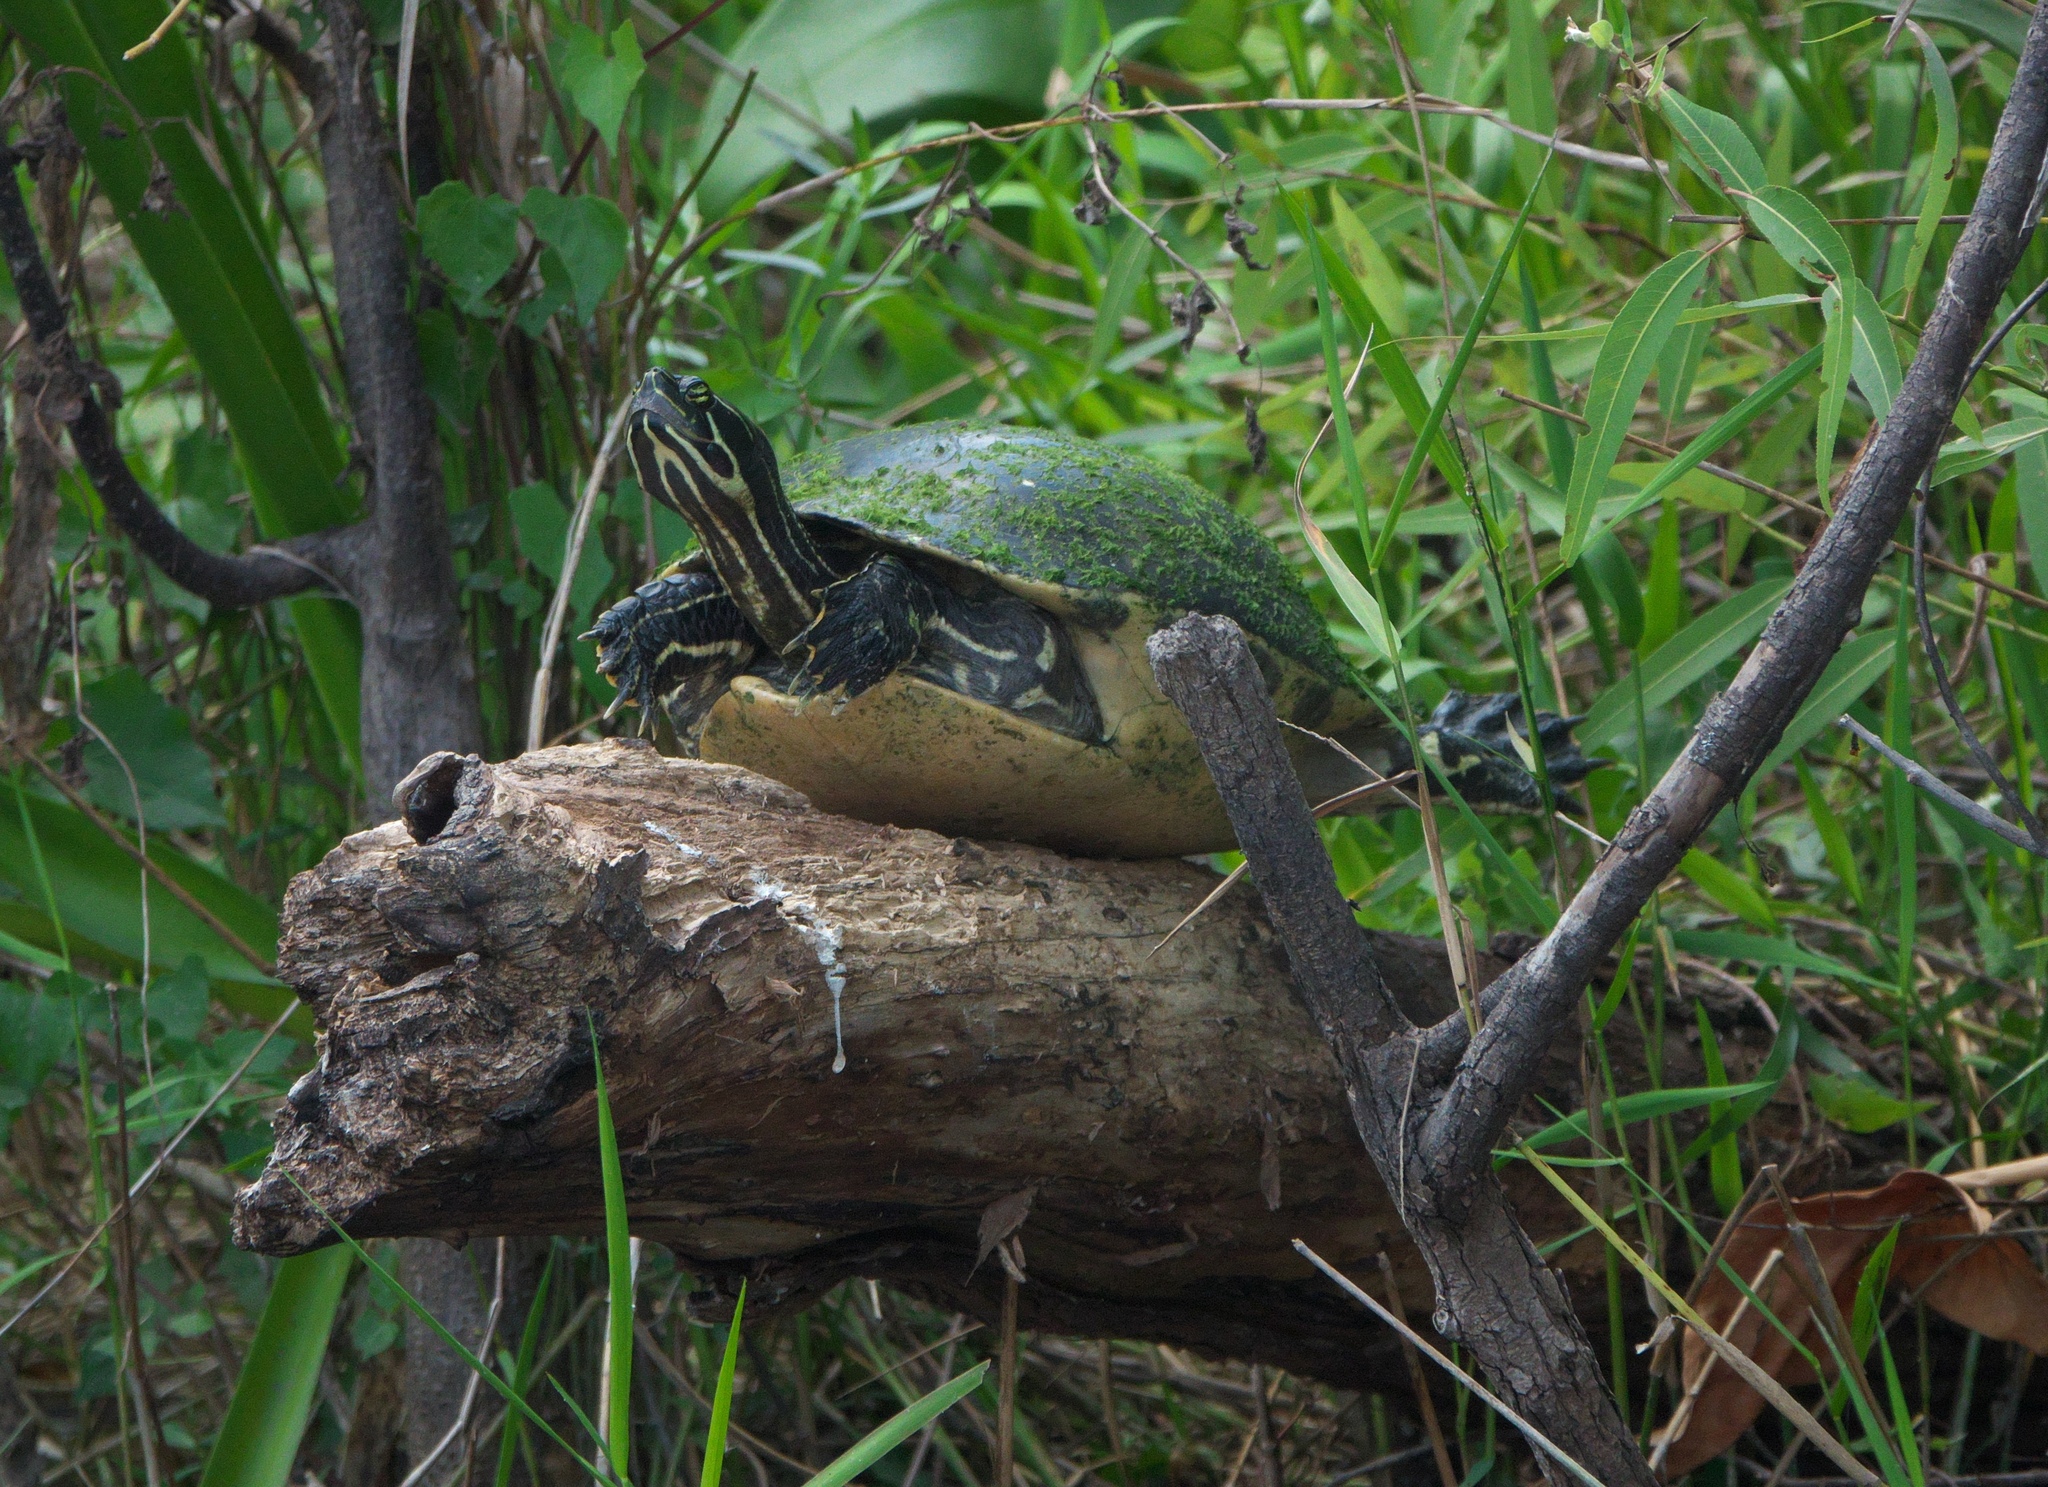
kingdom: Animalia
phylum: Chordata
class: Testudines
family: Emydidae
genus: Pseudemys
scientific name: Pseudemys peninsularis
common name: Peninsula cooter
